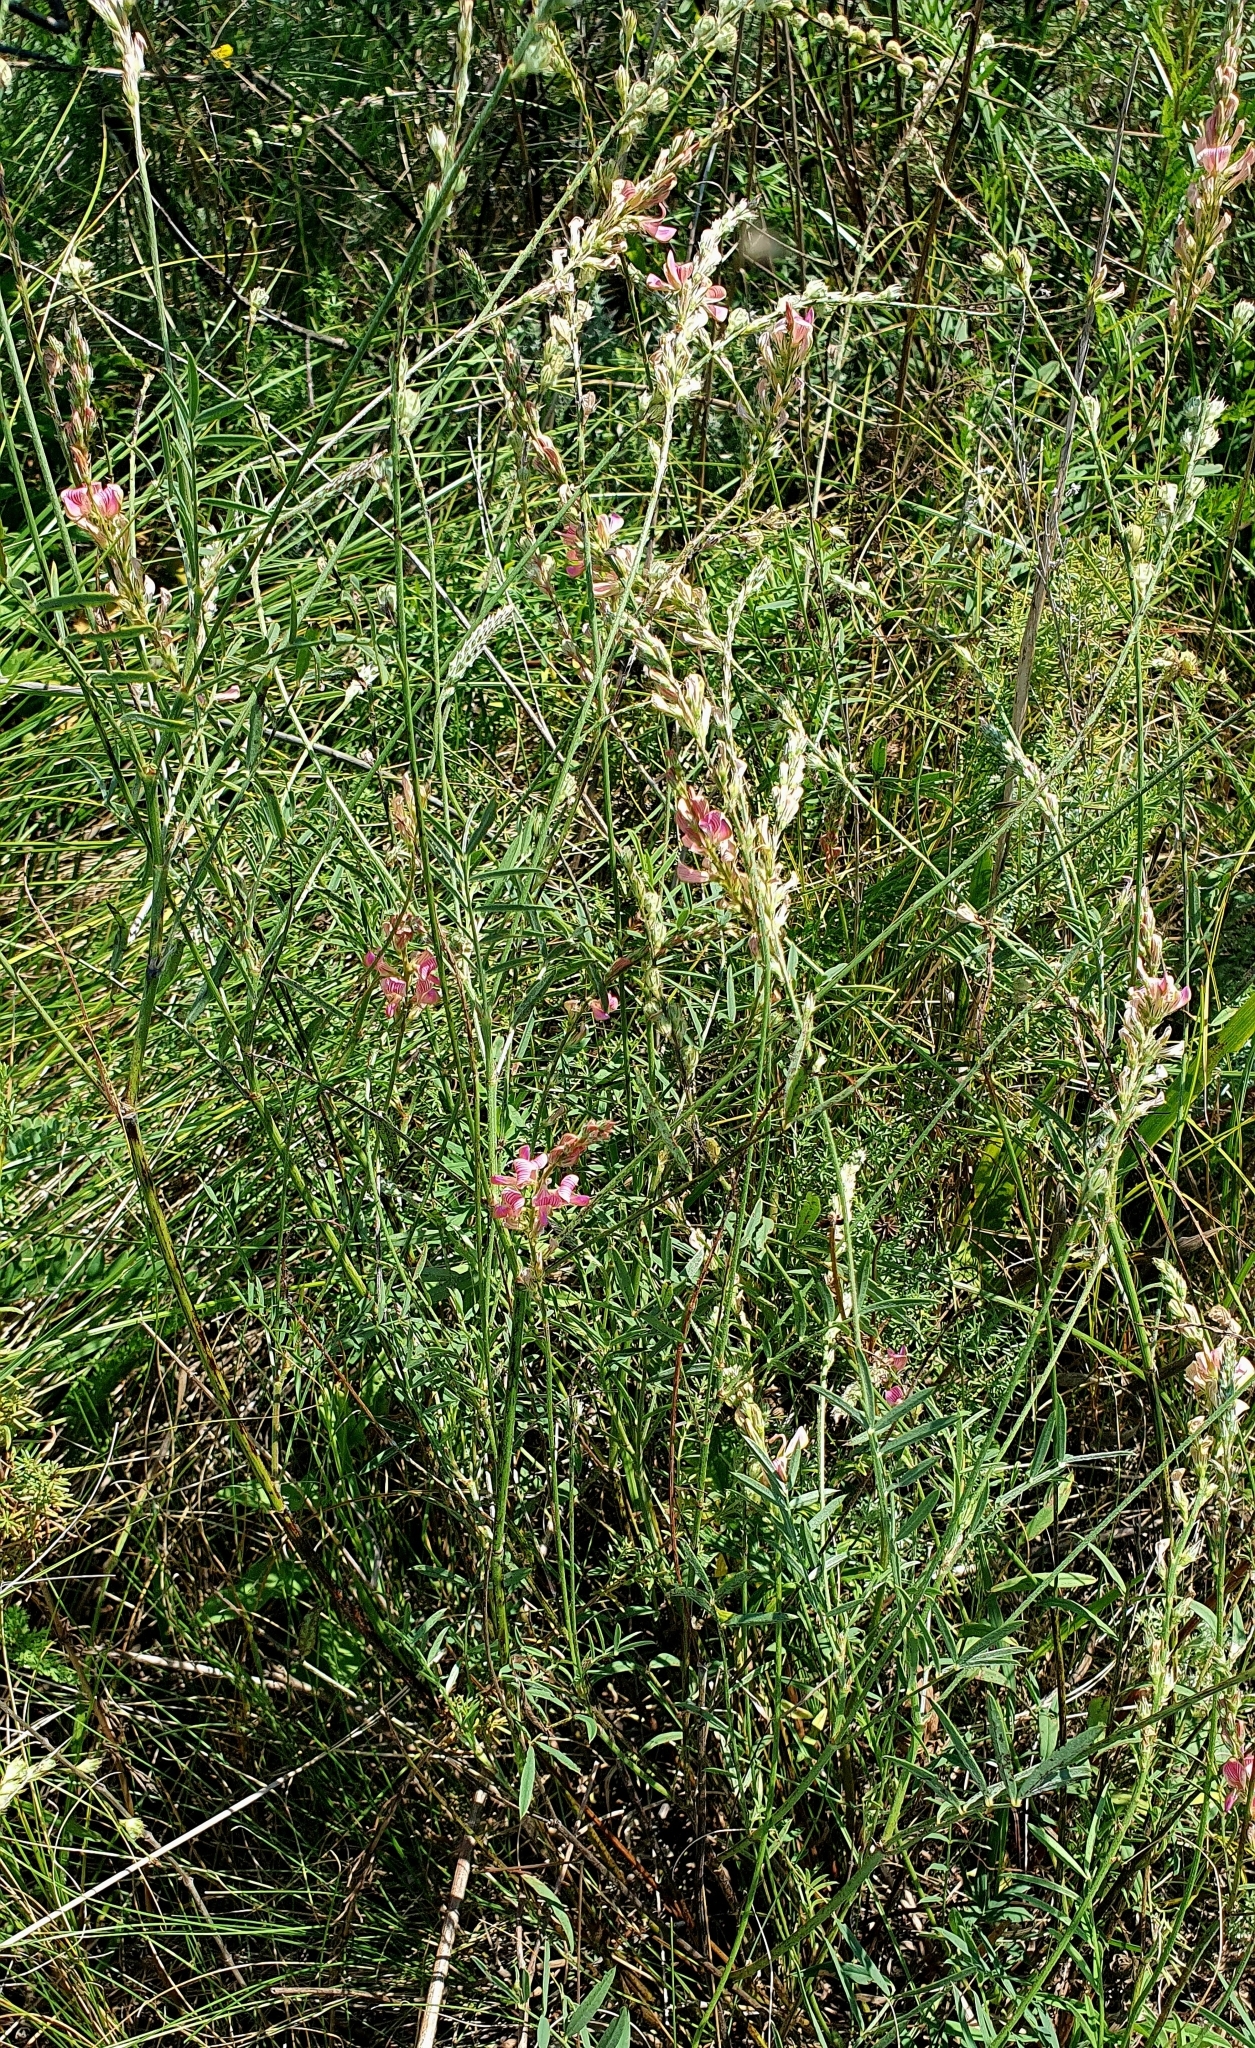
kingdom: Plantae
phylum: Tracheophyta
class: Magnoliopsida
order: Fabales
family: Fabaceae
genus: Onobrychis
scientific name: Onobrychis arenaria
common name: Sand esparcet
